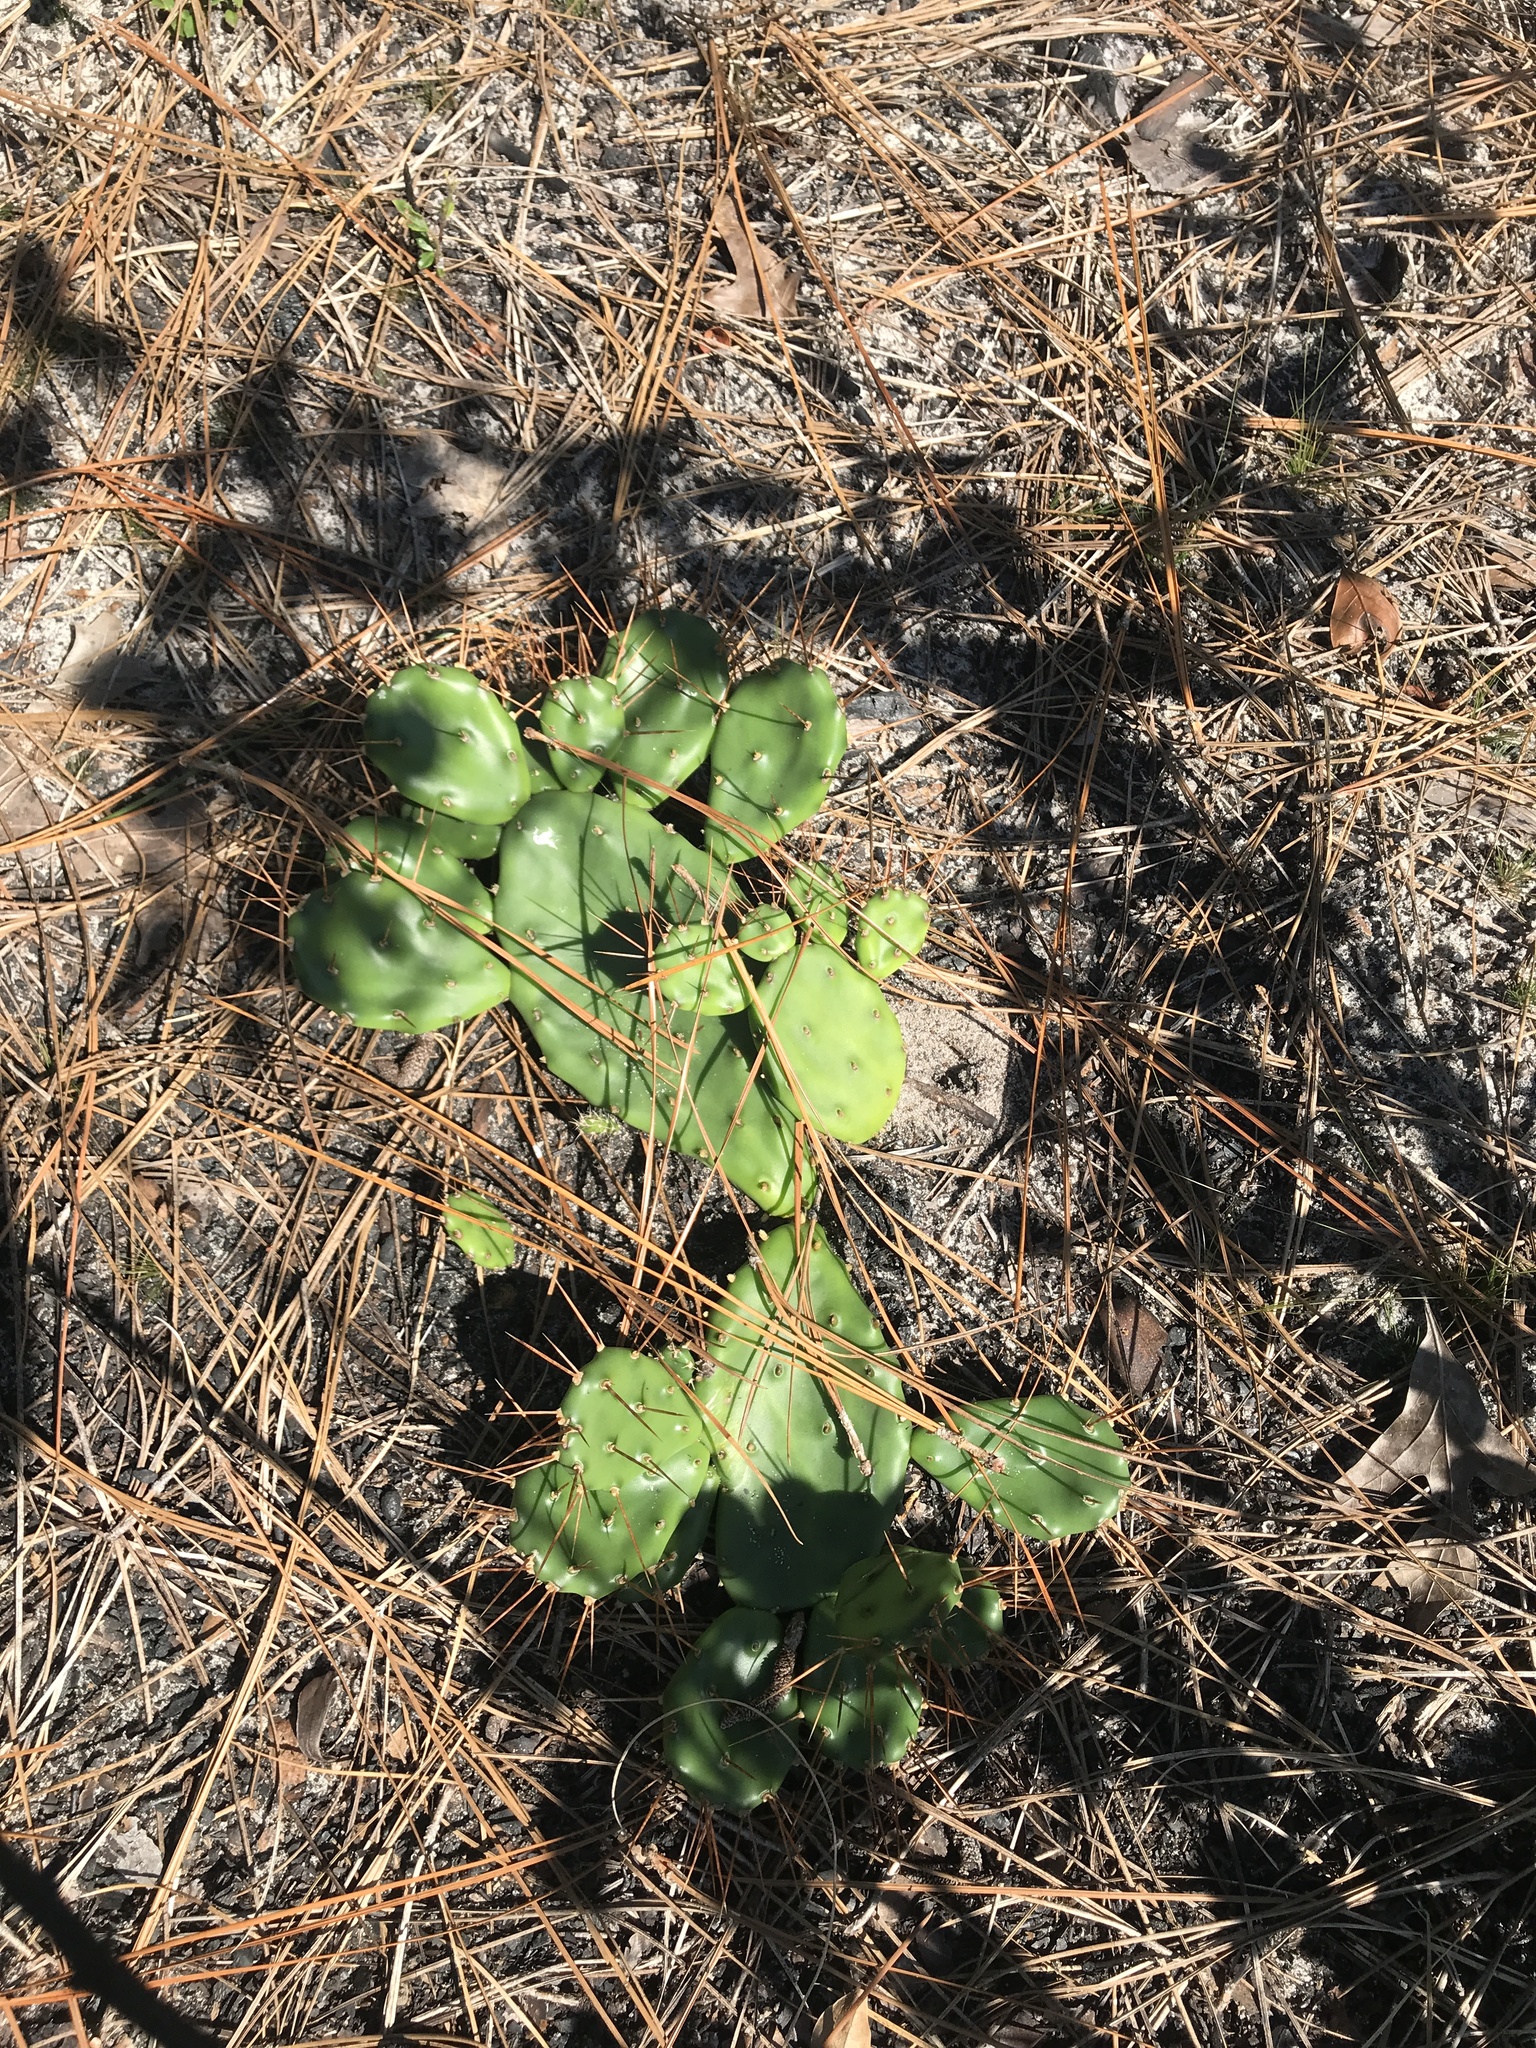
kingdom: Plantae
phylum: Tracheophyta
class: Magnoliopsida
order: Caryophyllales
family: Cactaceae
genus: Opuntia
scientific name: Opuntia mesacantha
